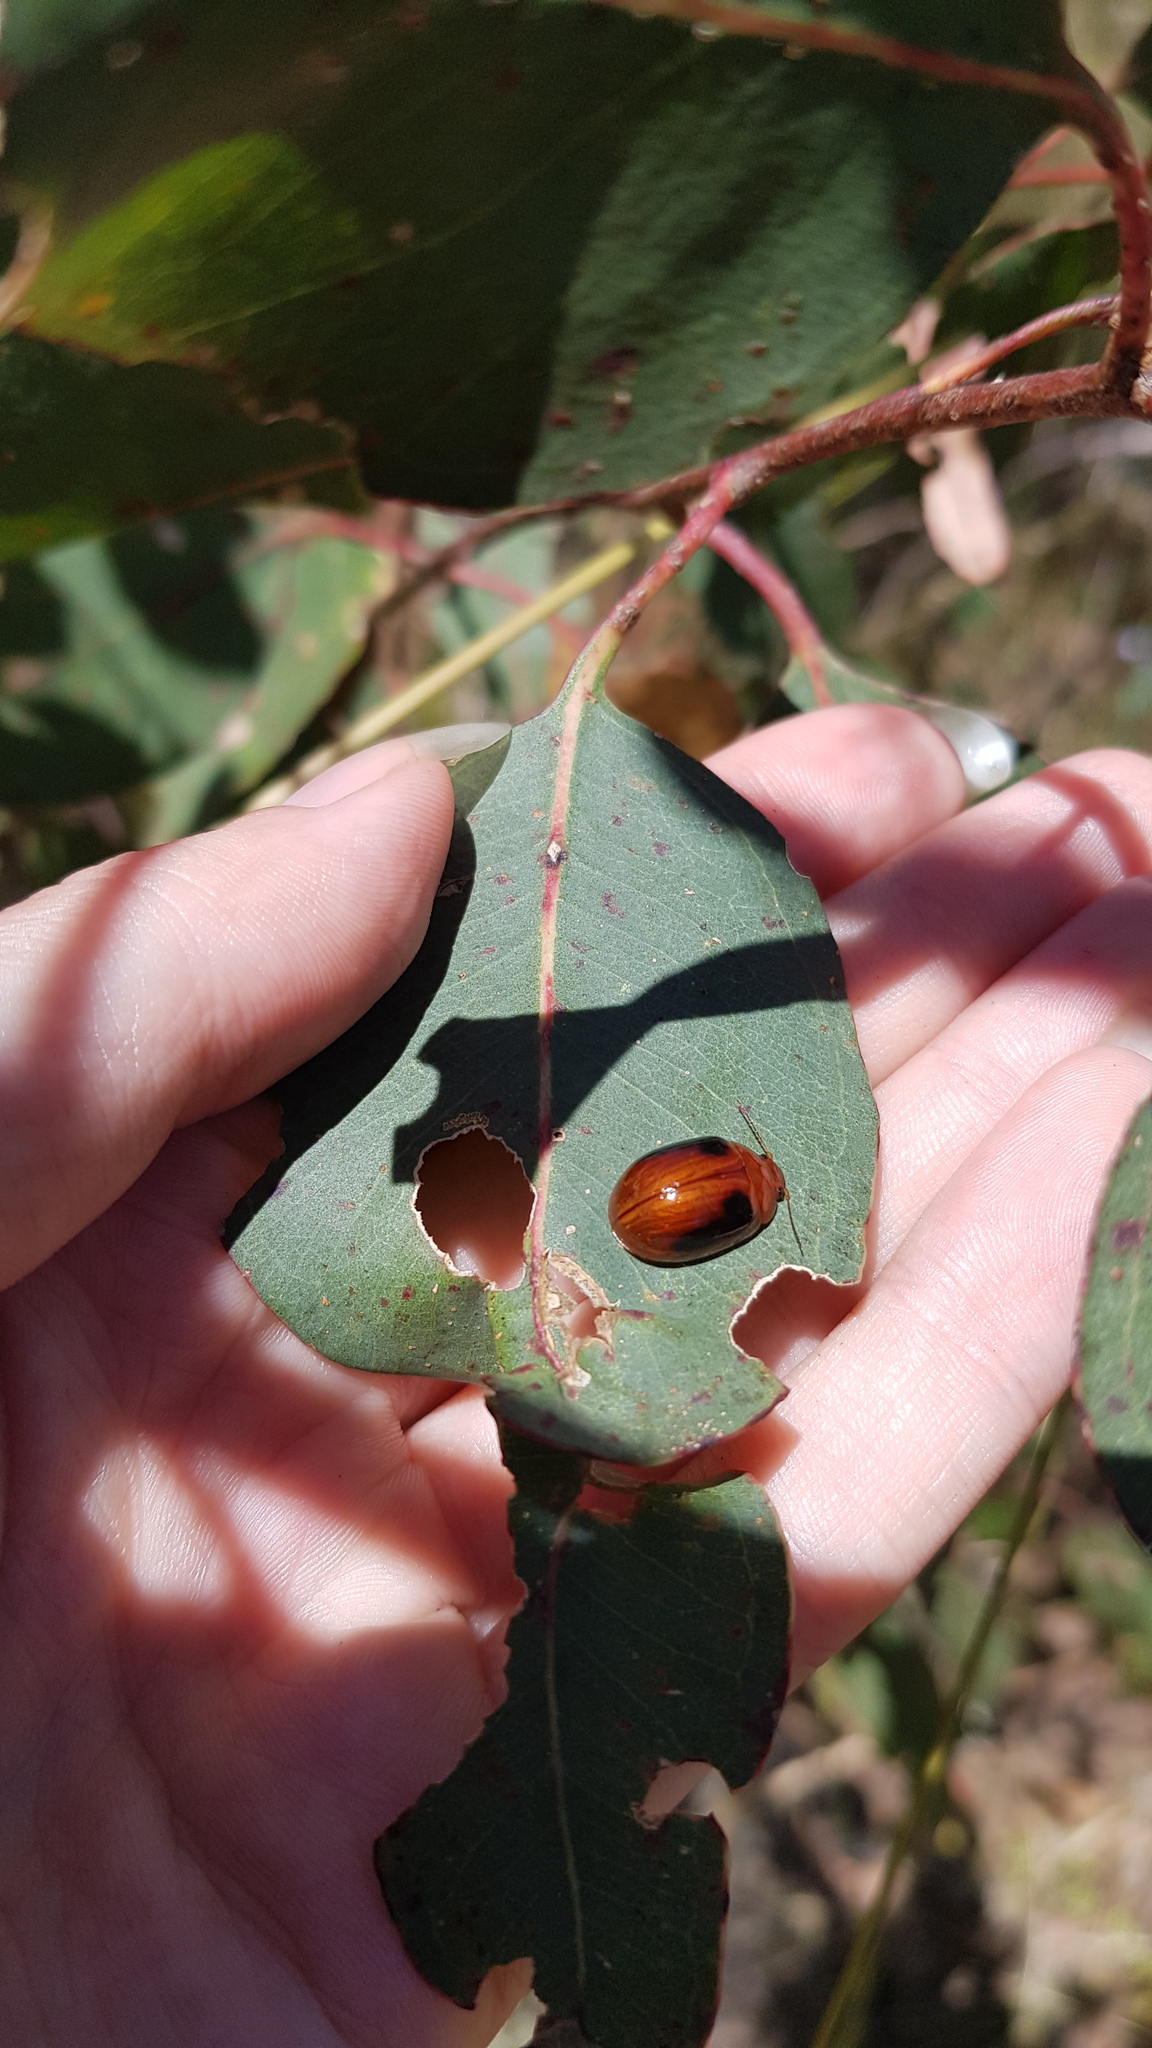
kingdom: Animalia
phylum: Arthropoda
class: Insecta
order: Coleoptera
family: Chrysomelidae
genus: Paropsisterna
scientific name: Paropsisterna
